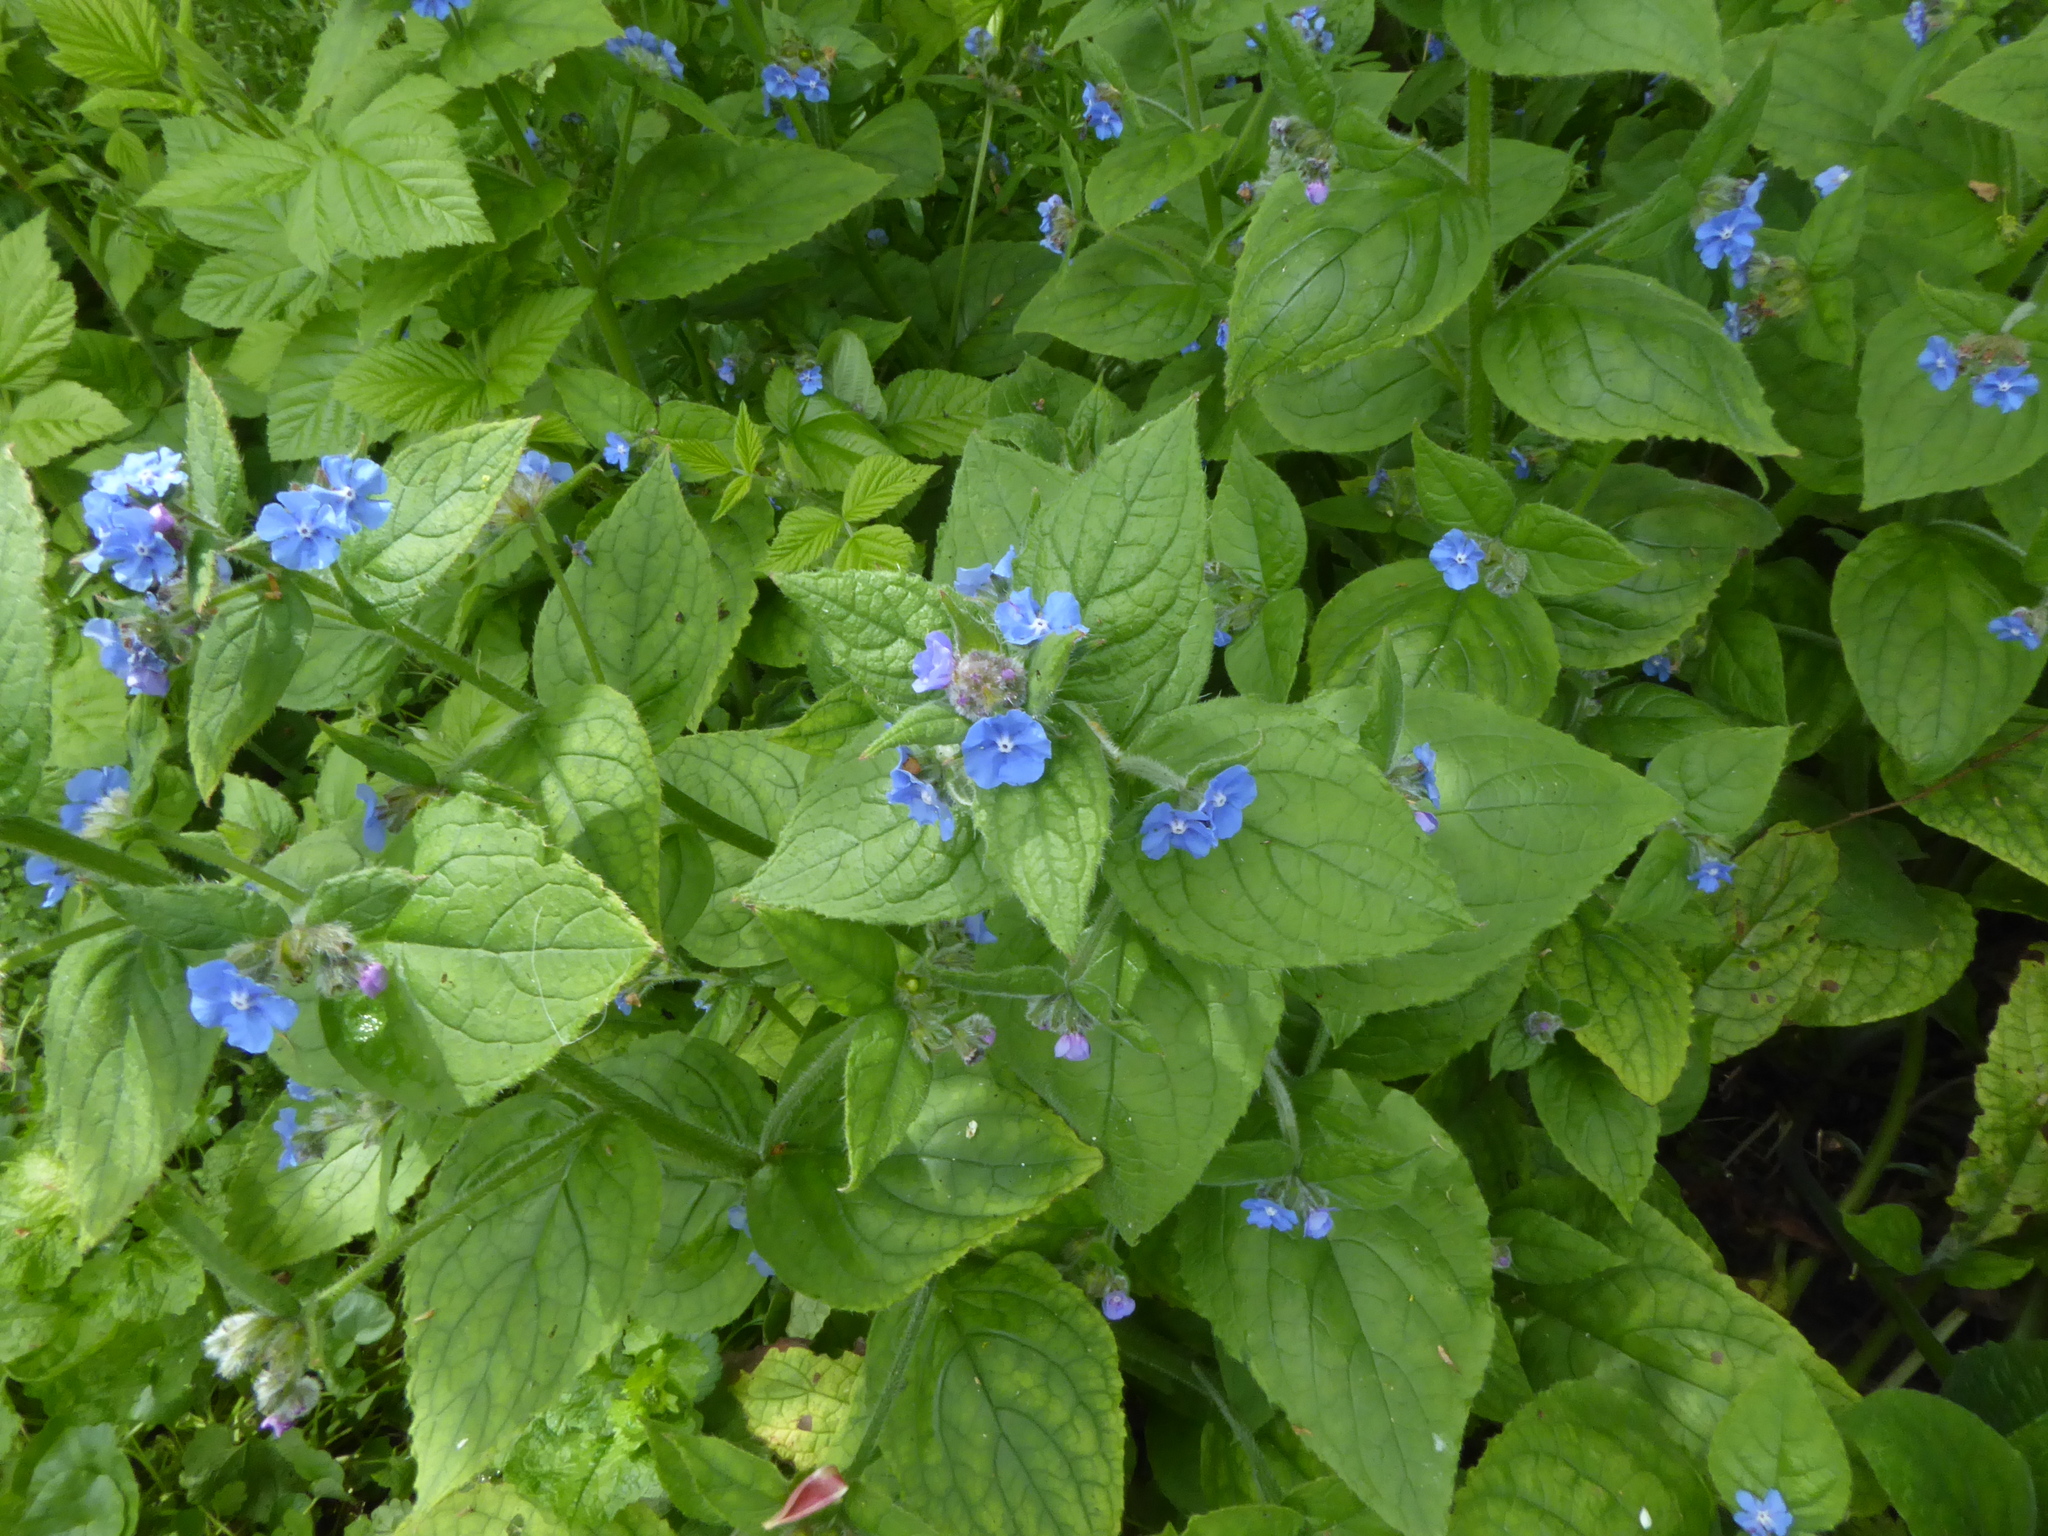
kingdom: Plantae
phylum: Tracheophyta
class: Magnoliopsida
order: Boraginales
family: Boraginaceae
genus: Pentaglottis
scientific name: Pentaglottis sempervirens
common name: Green alkanet
